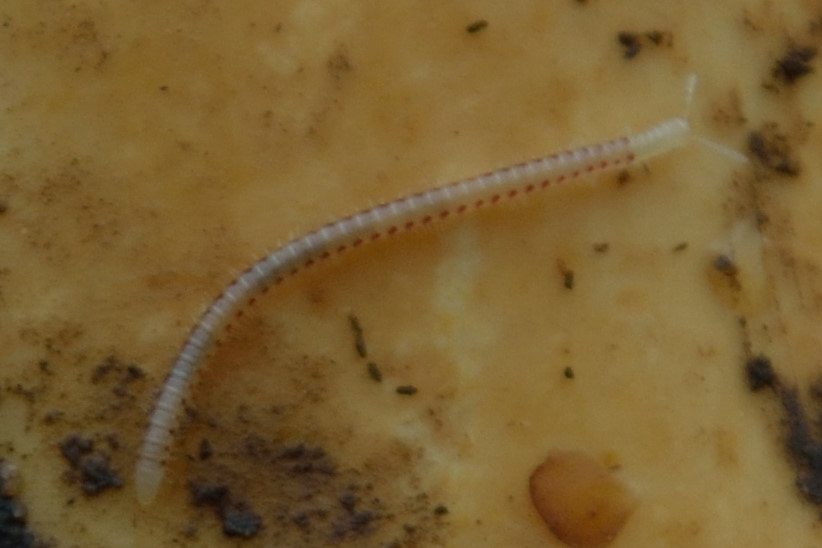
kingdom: Animalia
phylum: Arthropoda
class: Diplopoda
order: Julida
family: Blaniulidae
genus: Blaniulus
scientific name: Blaniulus guttulatus
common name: Spotted snake millipede
